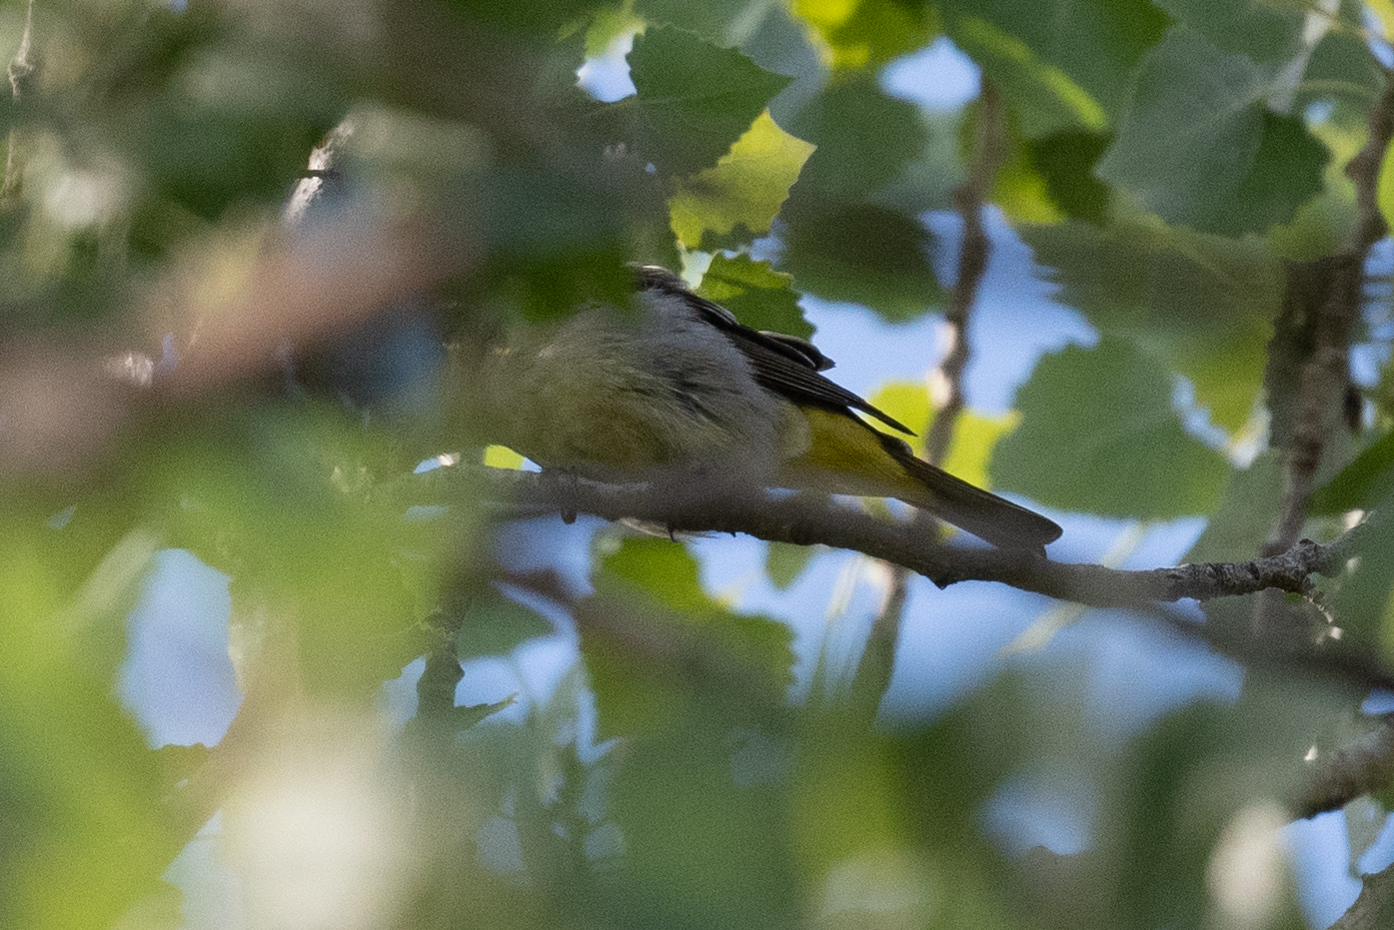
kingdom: Animalia
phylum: Chordata
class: Aves
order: Passeriformes
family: Cardinalidae
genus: Piranga
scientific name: Piranga ludoviciana
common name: Western tanager
